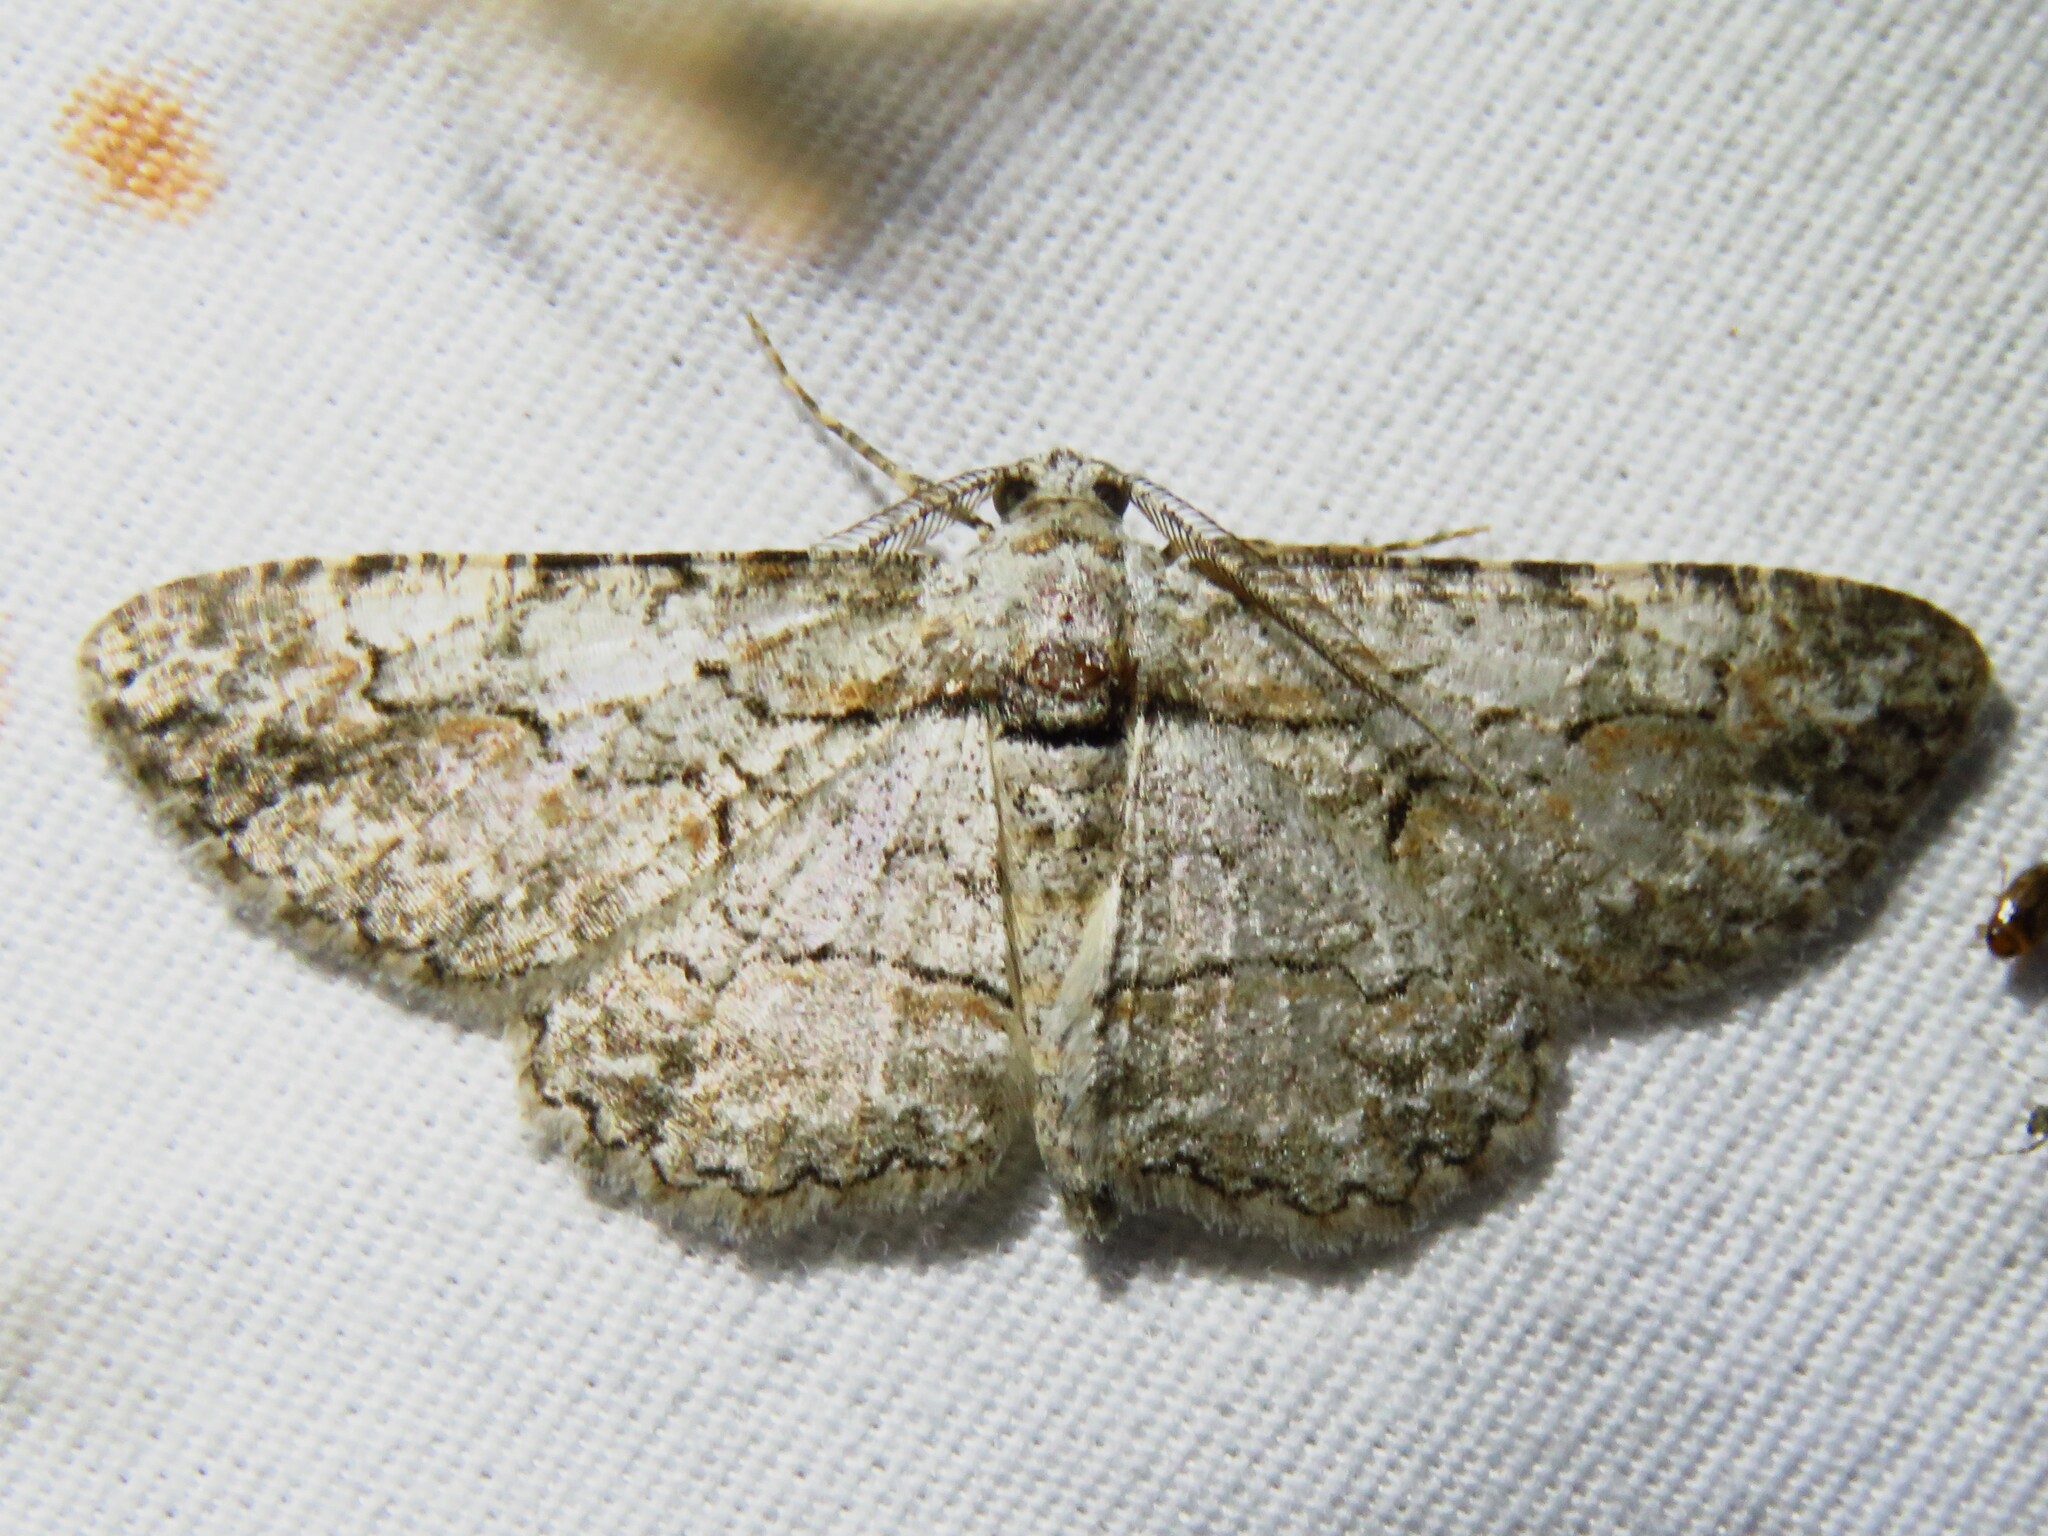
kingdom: Animalia
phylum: Arthropoda
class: Insecta
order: Lepidoptera
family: Geometridae
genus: Iridopsis
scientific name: Iridopsis defectaria
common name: Brown-shaded gray
